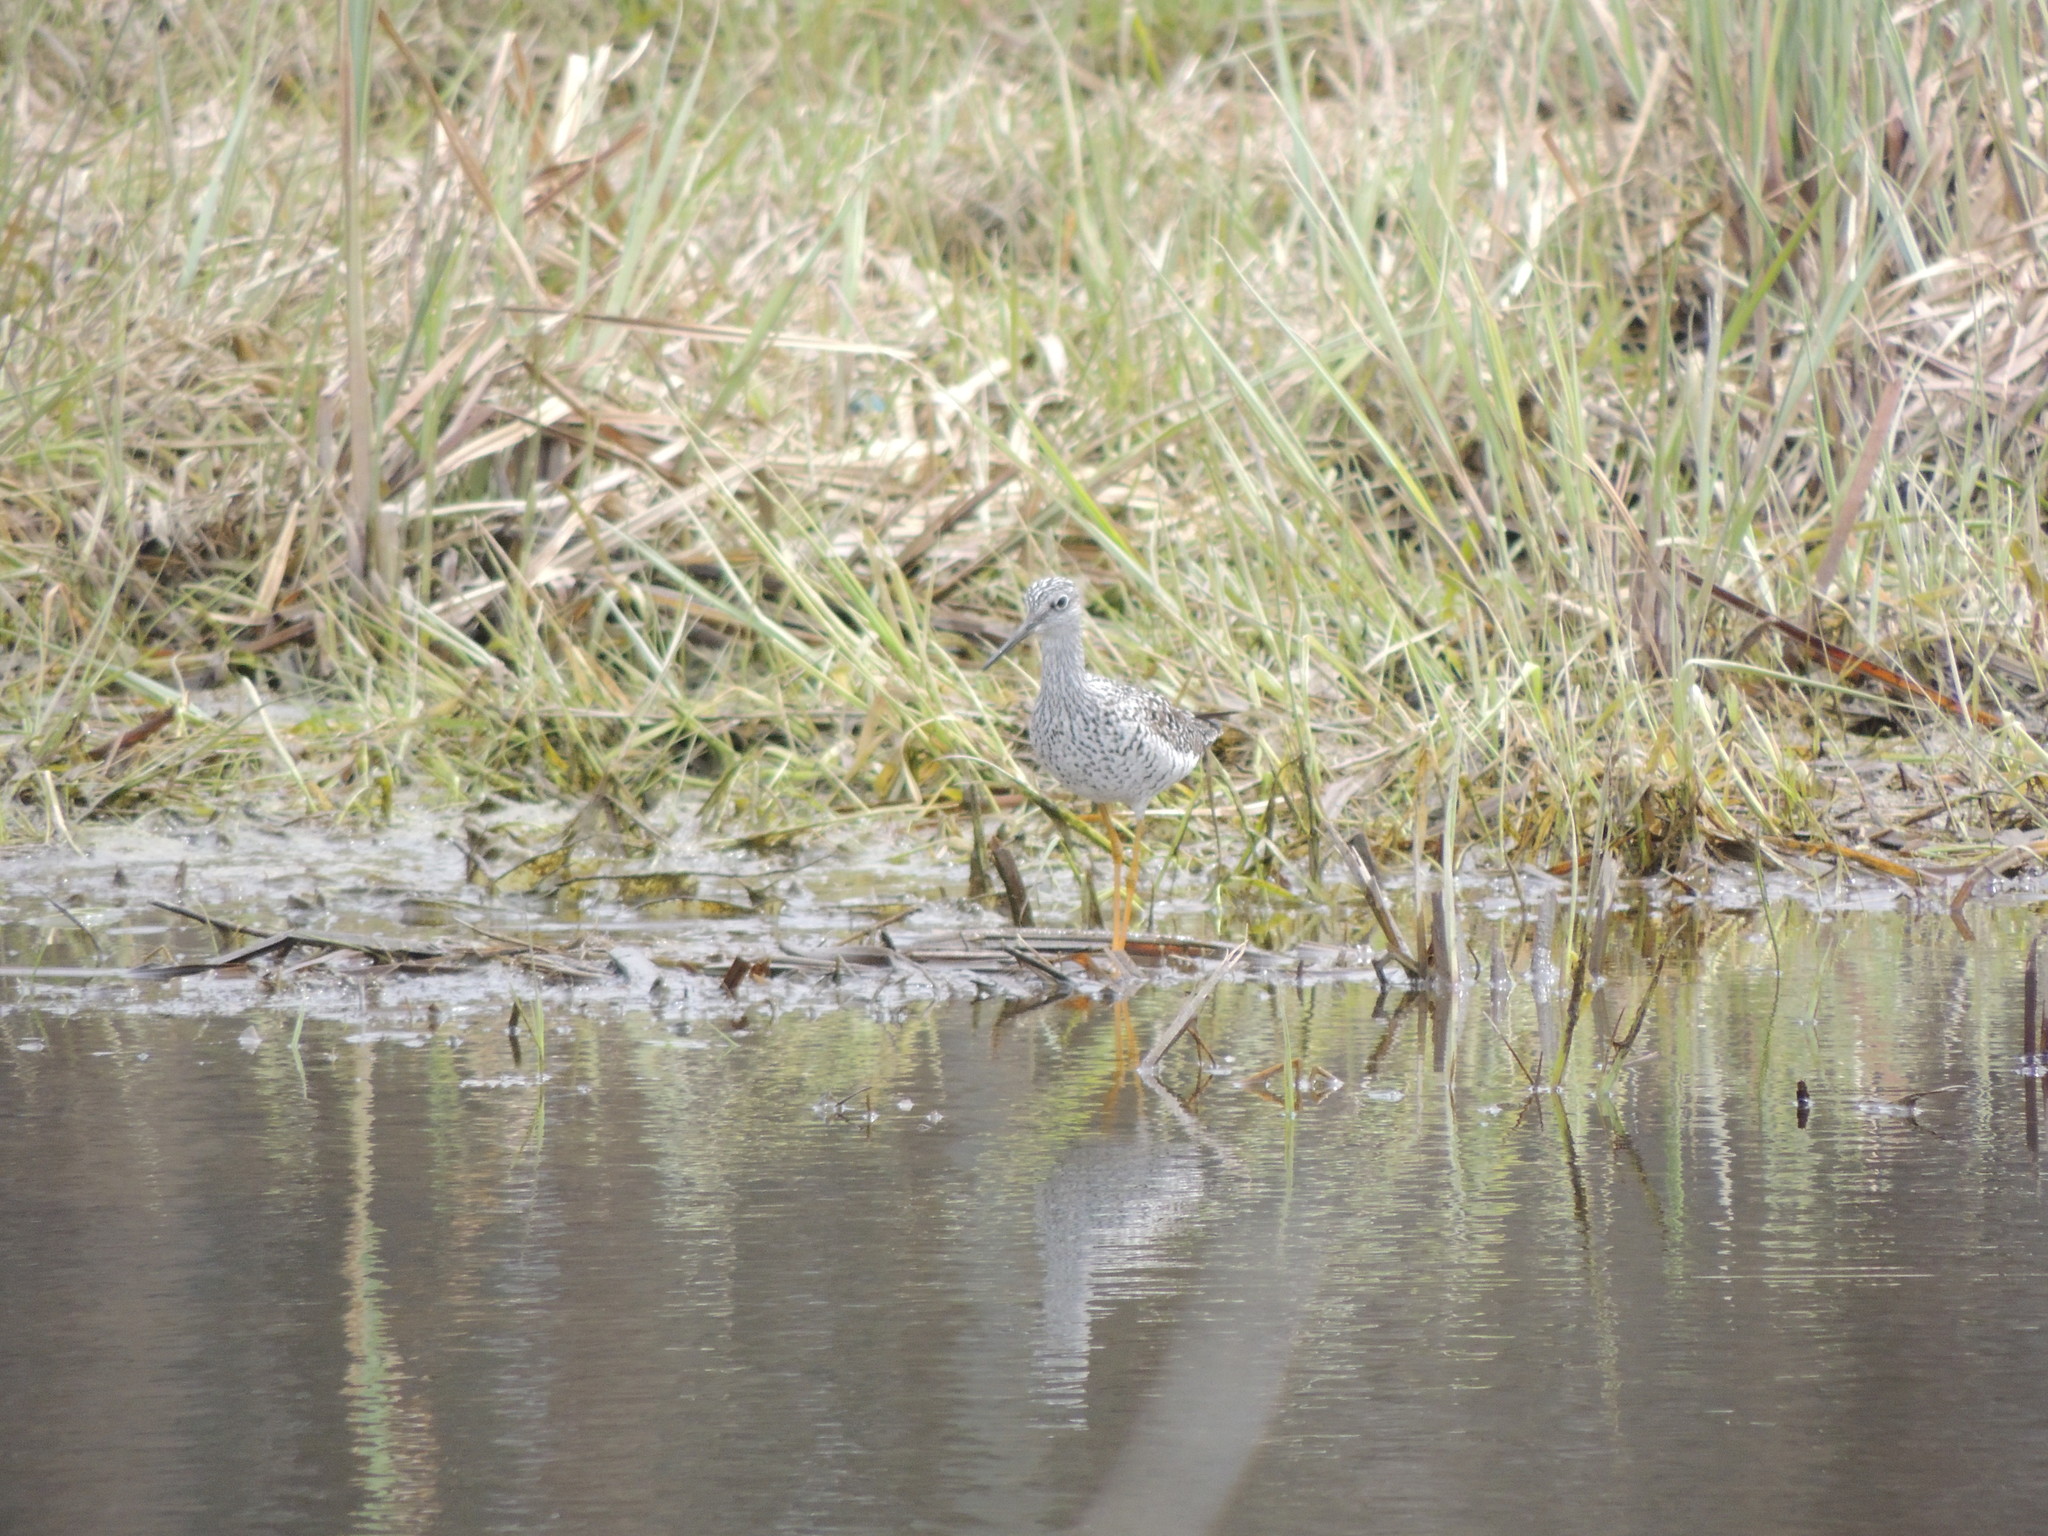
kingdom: Animalia
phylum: Chordata
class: Aves
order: Charadriiformes
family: Scolopacidae
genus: Tringa
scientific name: Tringa melanoleuca
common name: Greater yellowlegs
